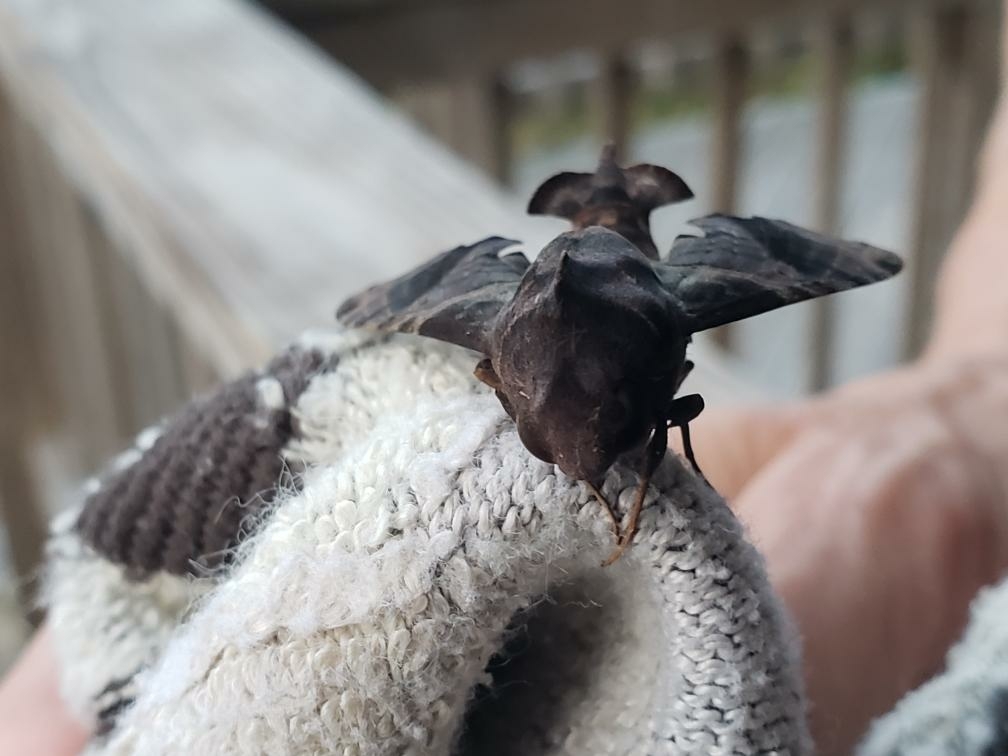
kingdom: Animalia
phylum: Arthropoda
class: Insecta
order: Lepidoptera
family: Sphingidae
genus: Enyo
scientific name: Enyo lugubris
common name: Mournful sphinx
